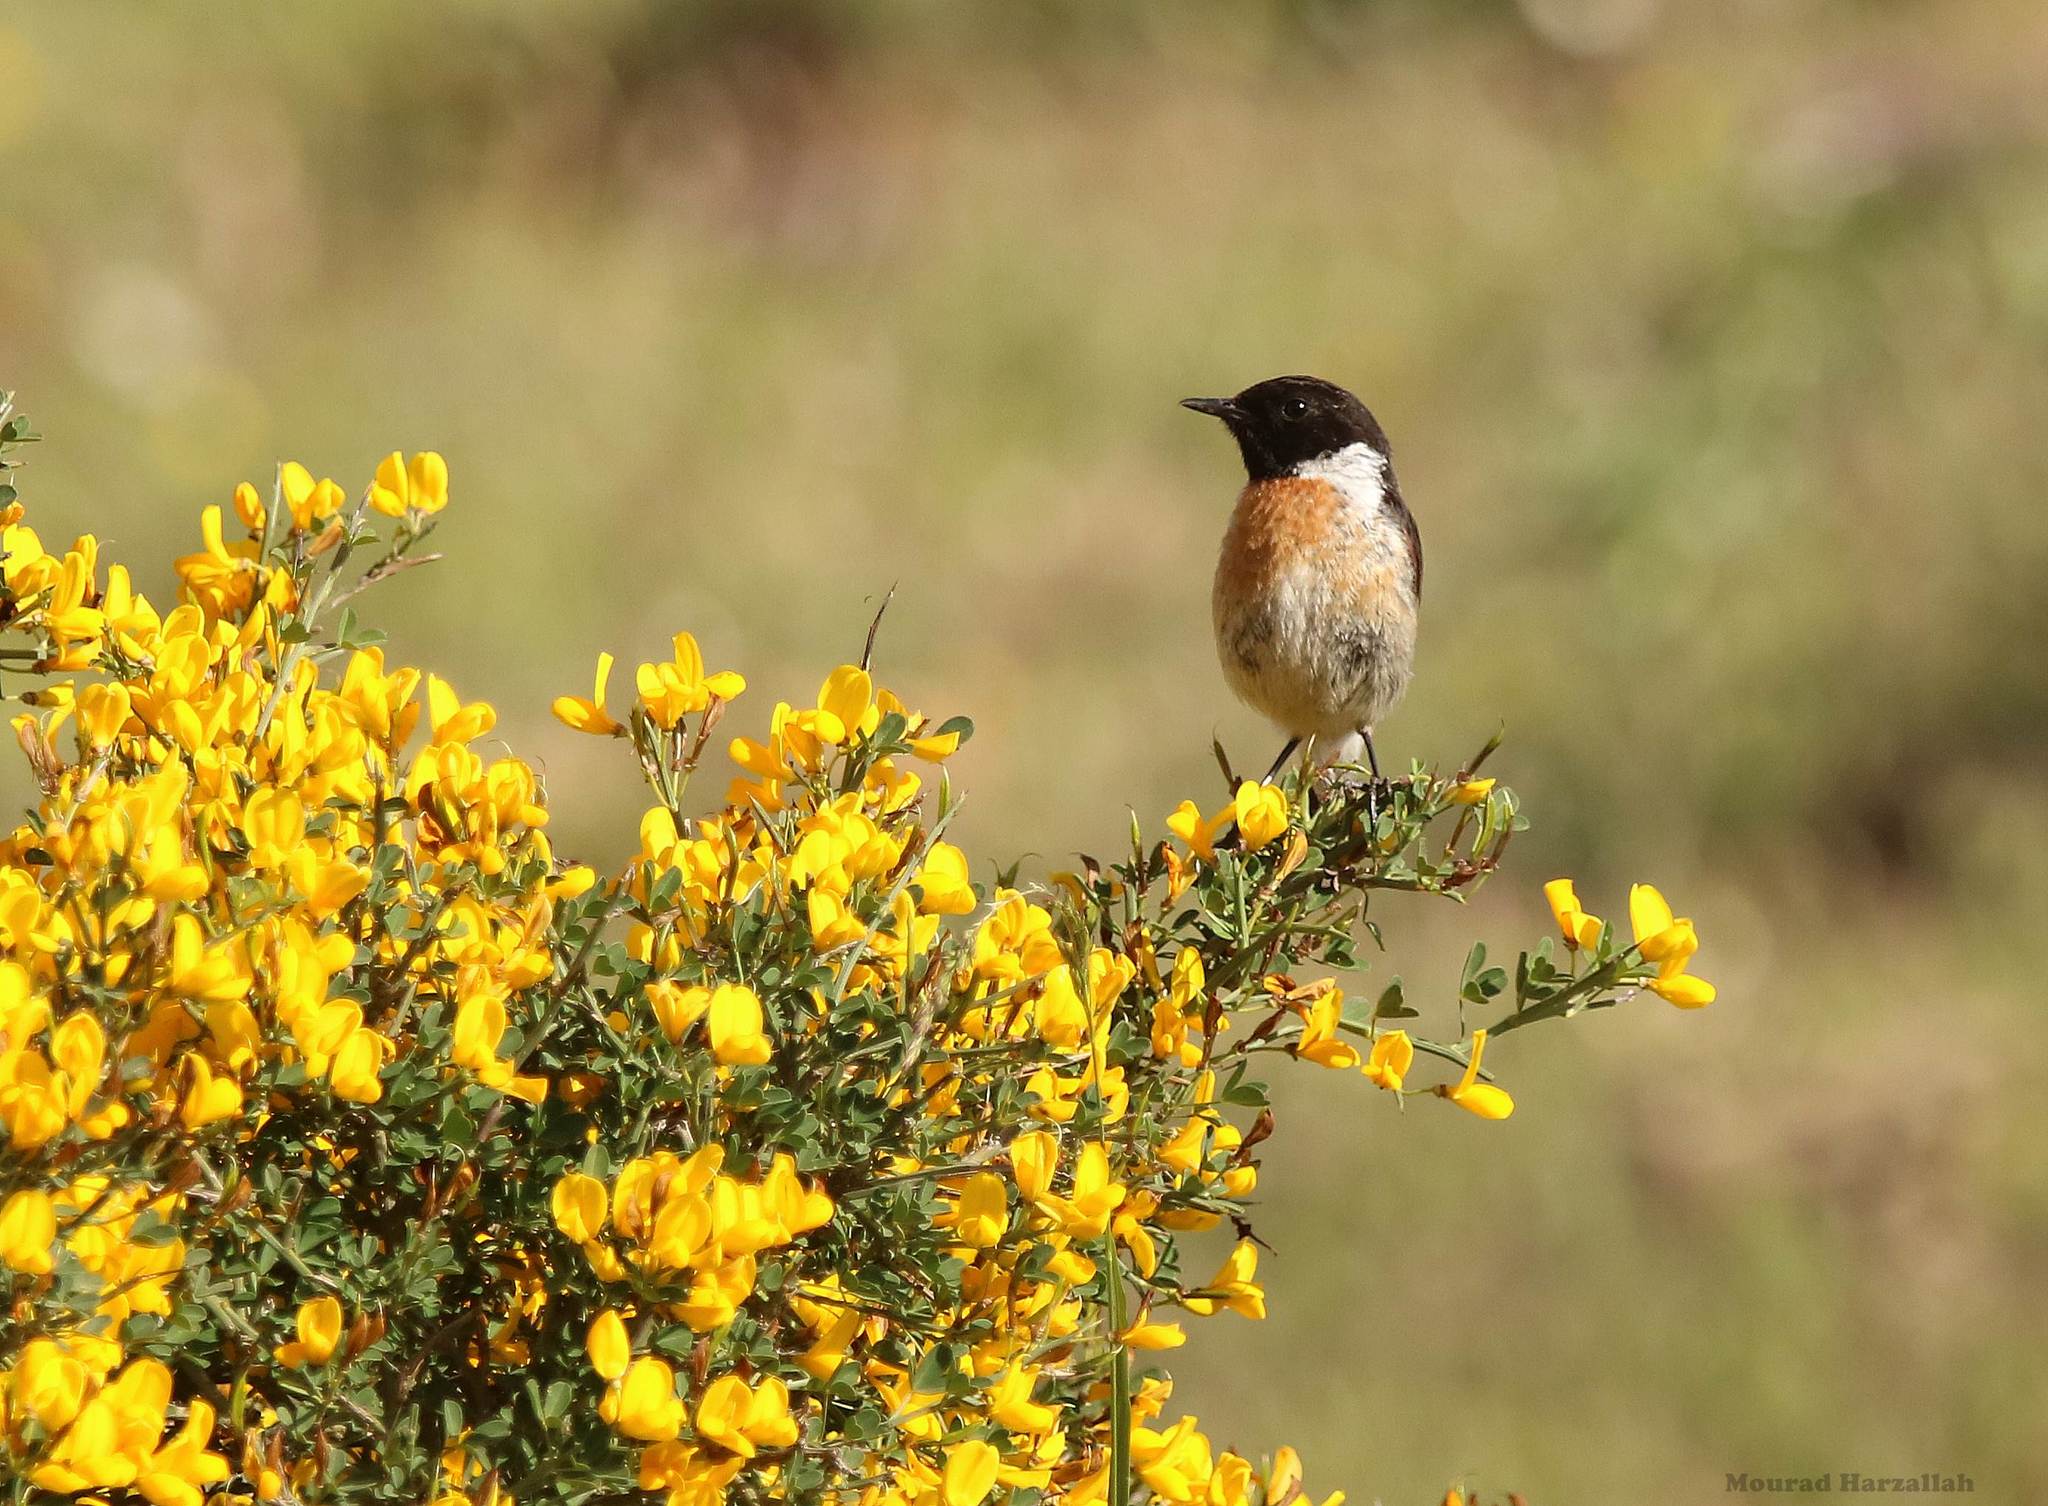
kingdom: Animalia
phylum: Chordata
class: Aves
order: Passeriformes
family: Muscicapidae
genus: Saxicola
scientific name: Saxicola rubicola
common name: European stonechat
